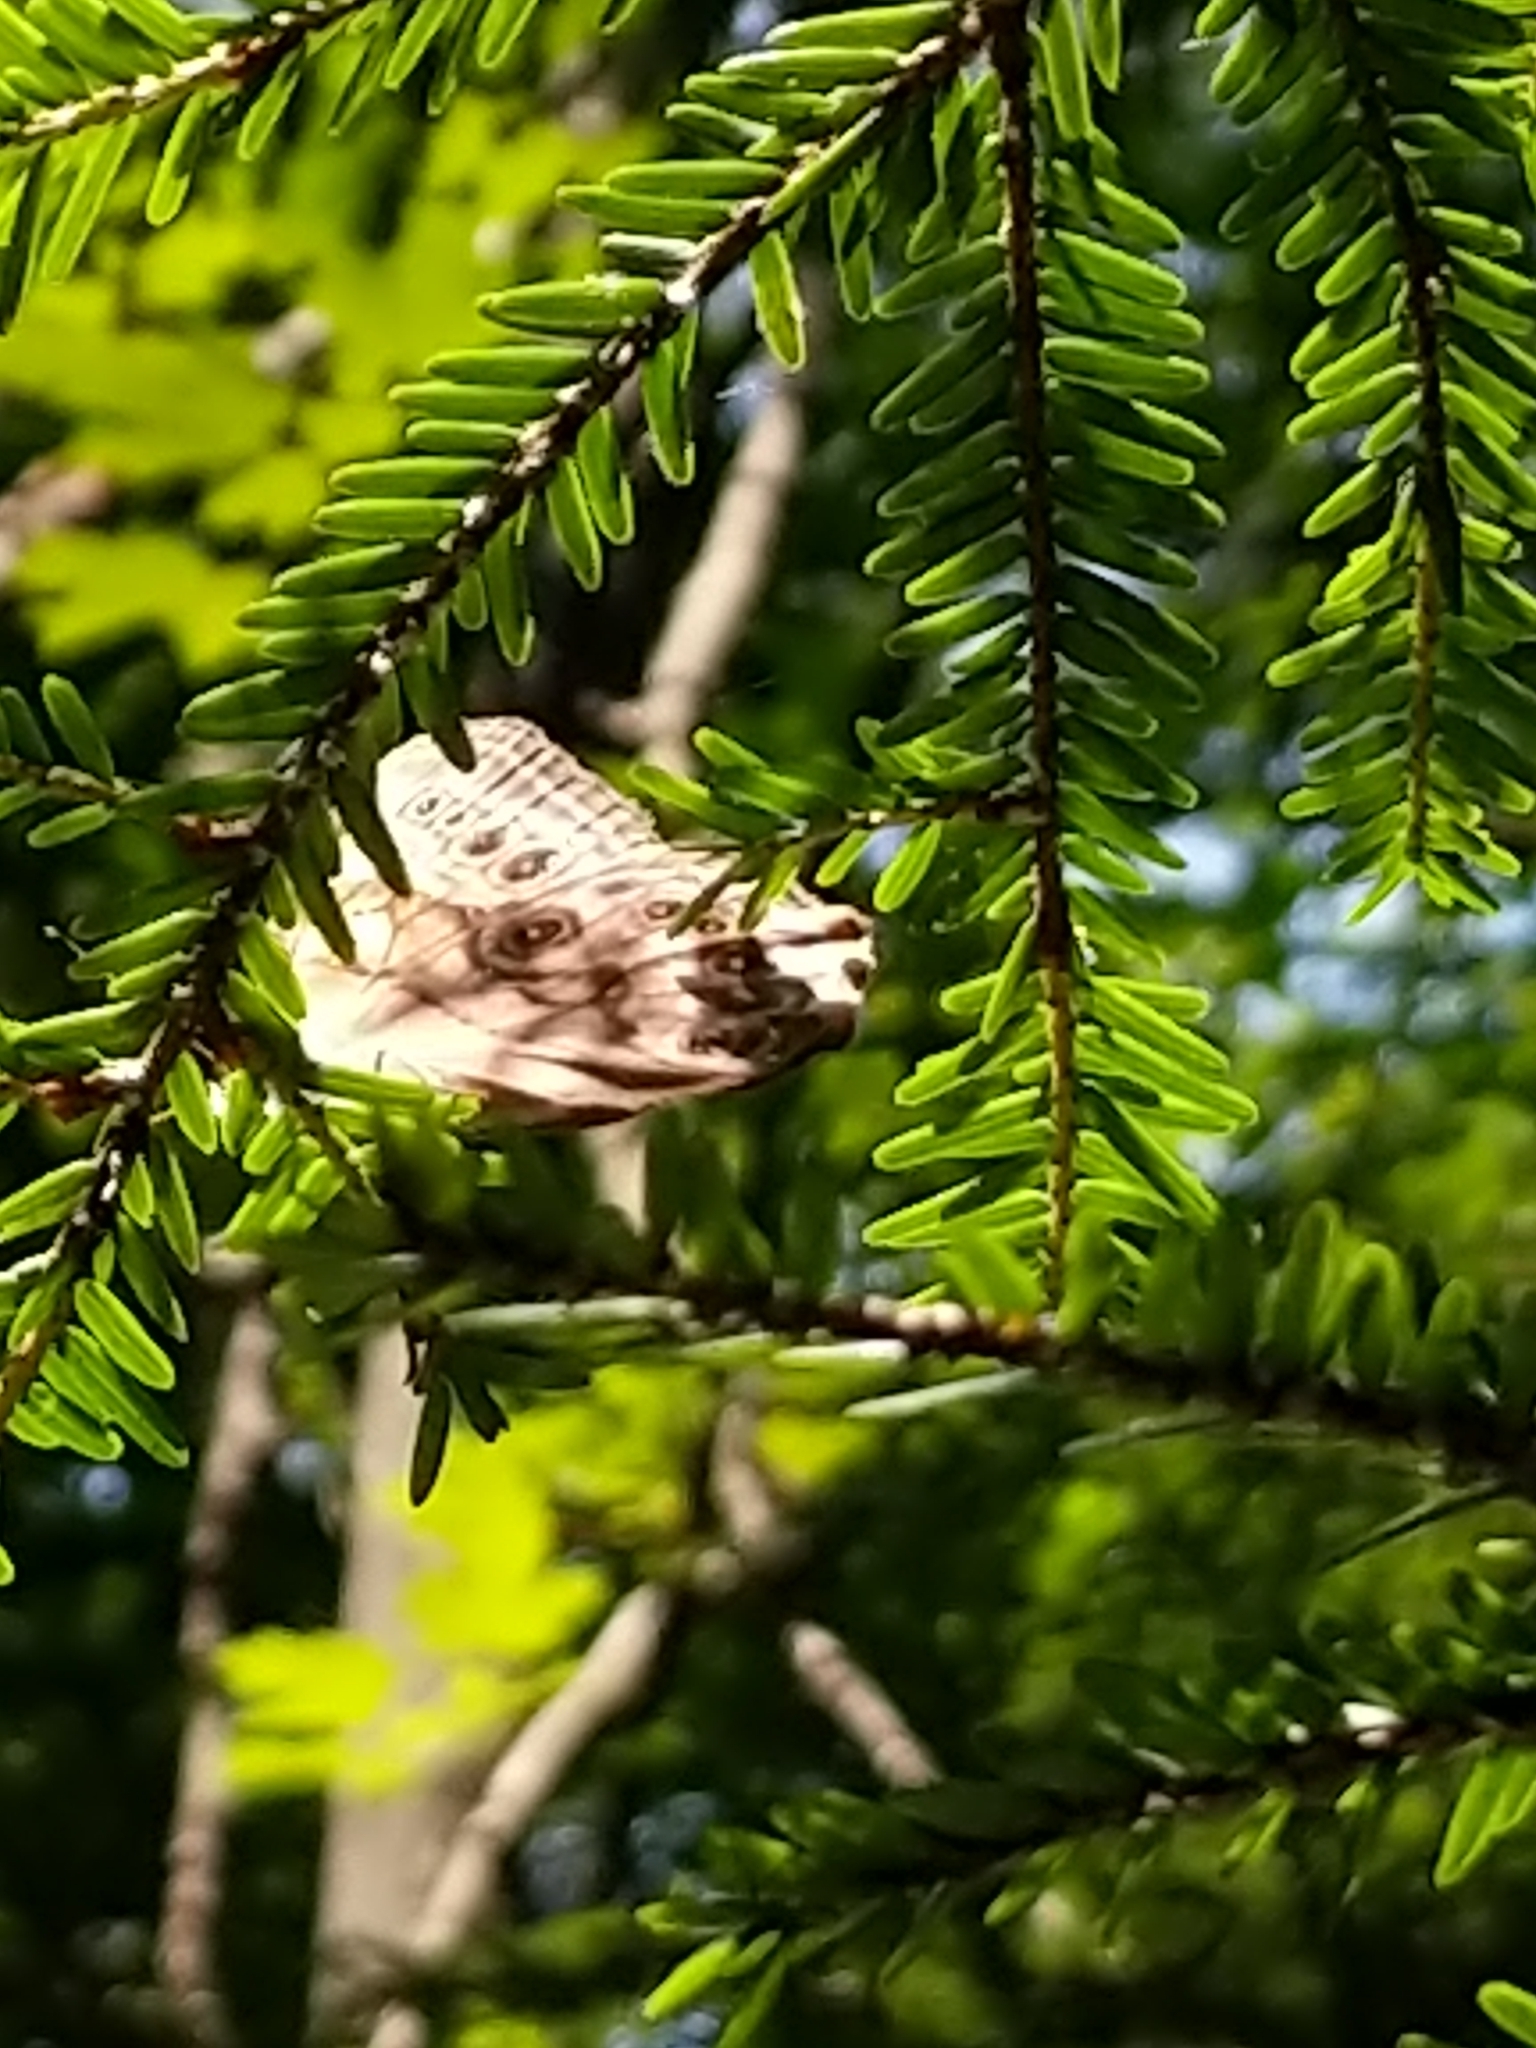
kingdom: Animalia
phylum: Arthropoda
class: Insecta
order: Lepidoptera
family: Nymphalidae
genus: Lethe
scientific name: Lethe anthedon
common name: Northern pearly-eye
